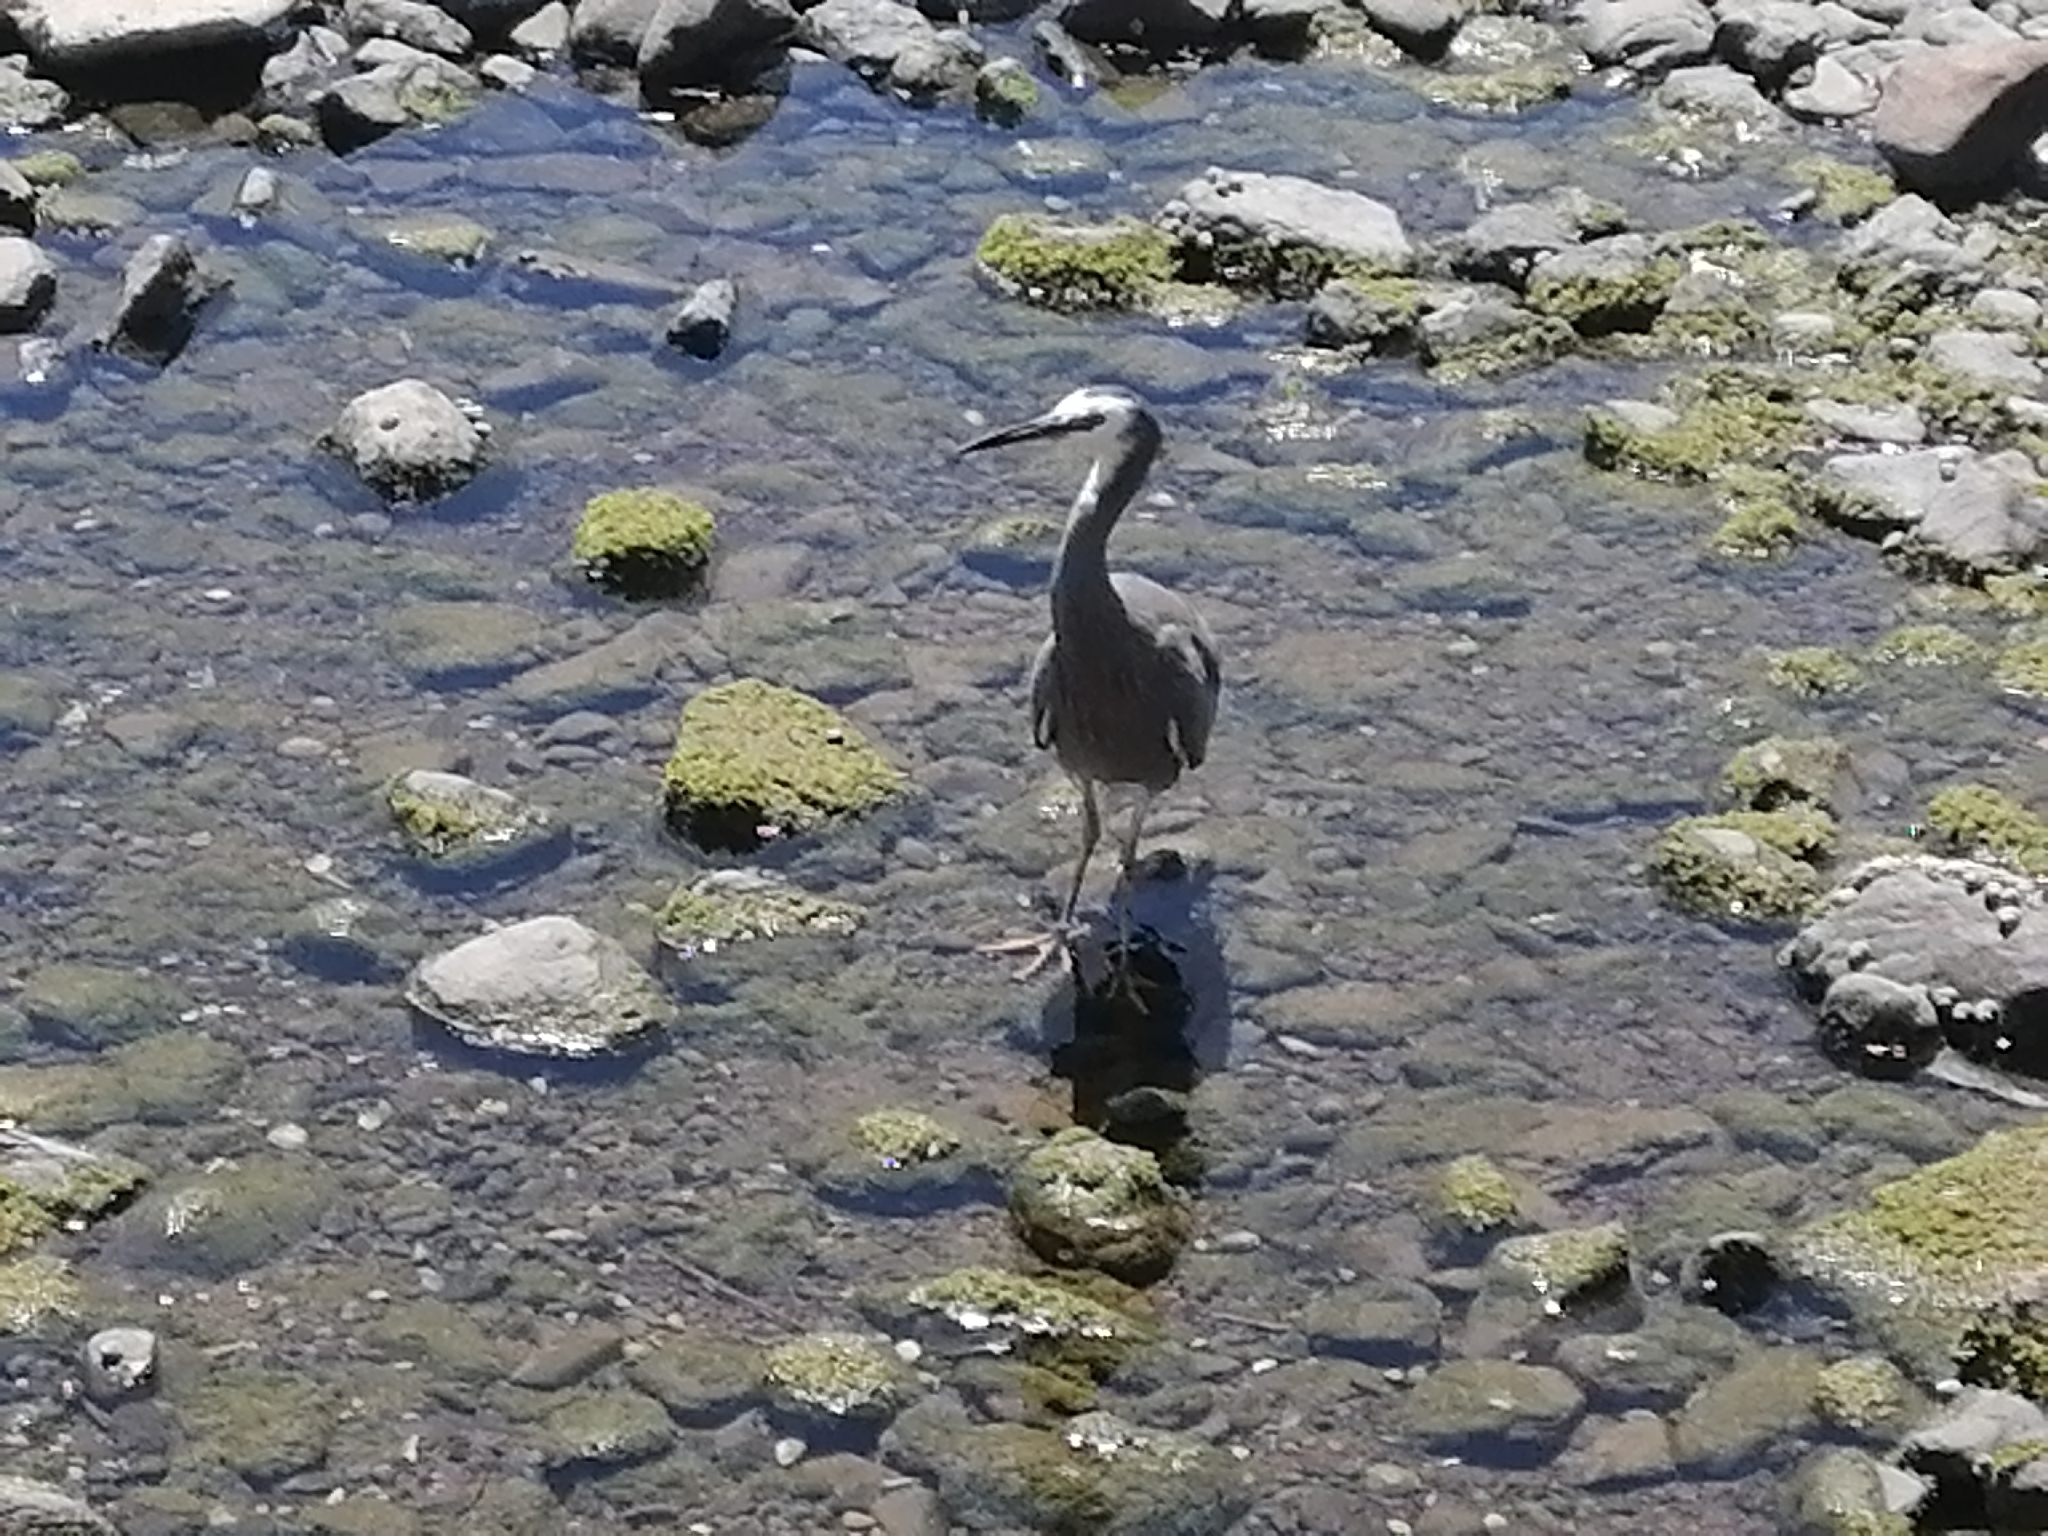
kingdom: Animalia
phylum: Chordata
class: Aves
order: Pelecaniformes
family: Ardeidae
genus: Egretta
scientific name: Egretta novaehollandiae
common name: White-faced heron
